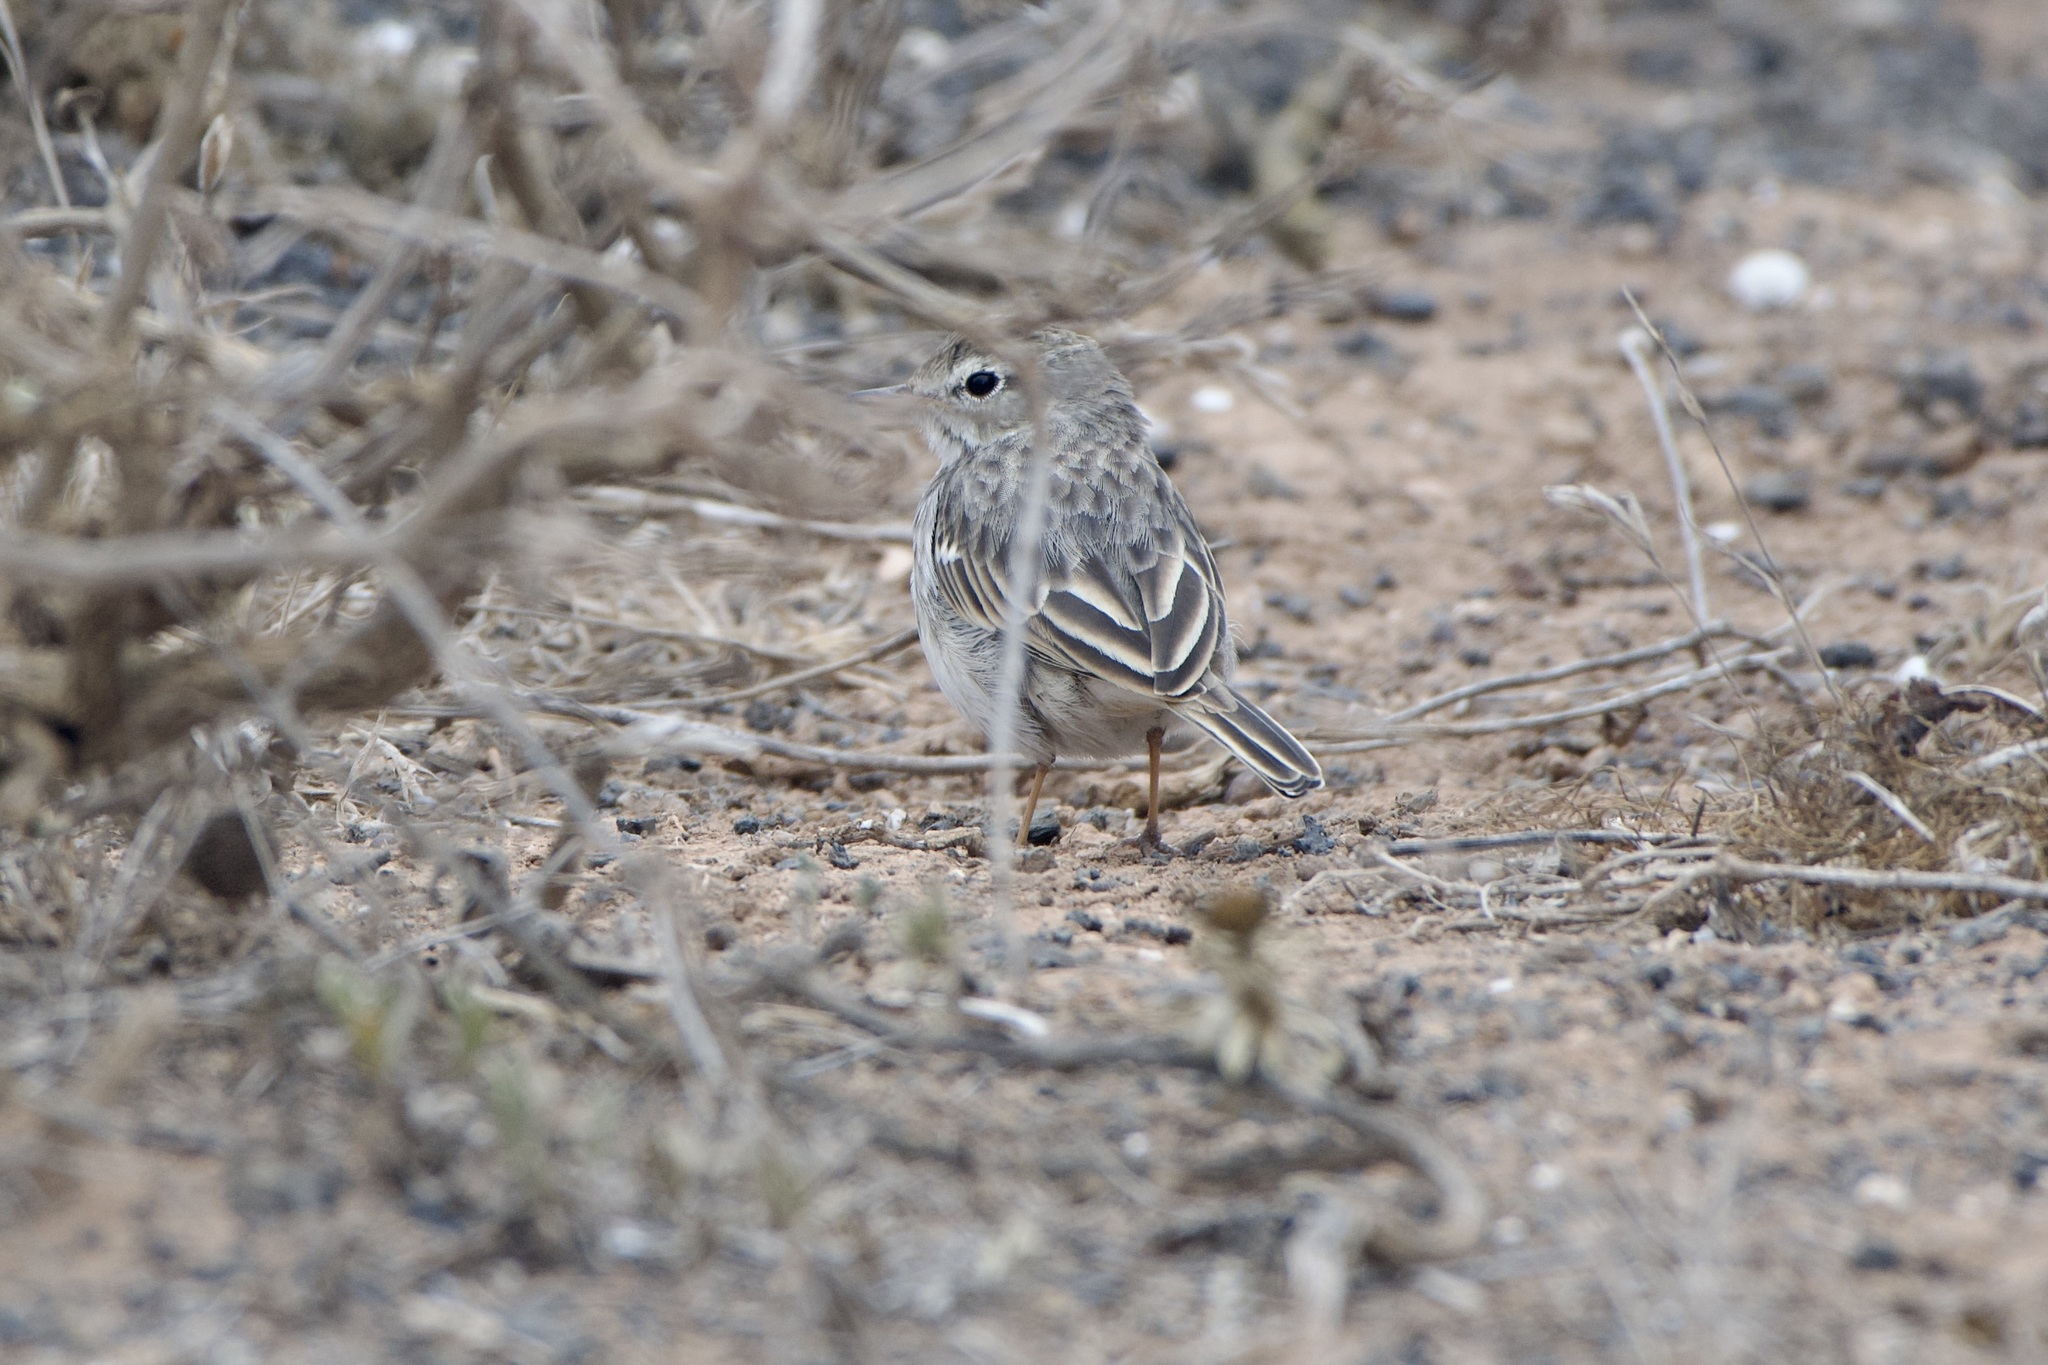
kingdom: Animalia
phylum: Chordata
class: Aves
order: Passeriformes
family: Motacillidae
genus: Anthus
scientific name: Anthus berthelotii
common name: Berthelot's pipit
